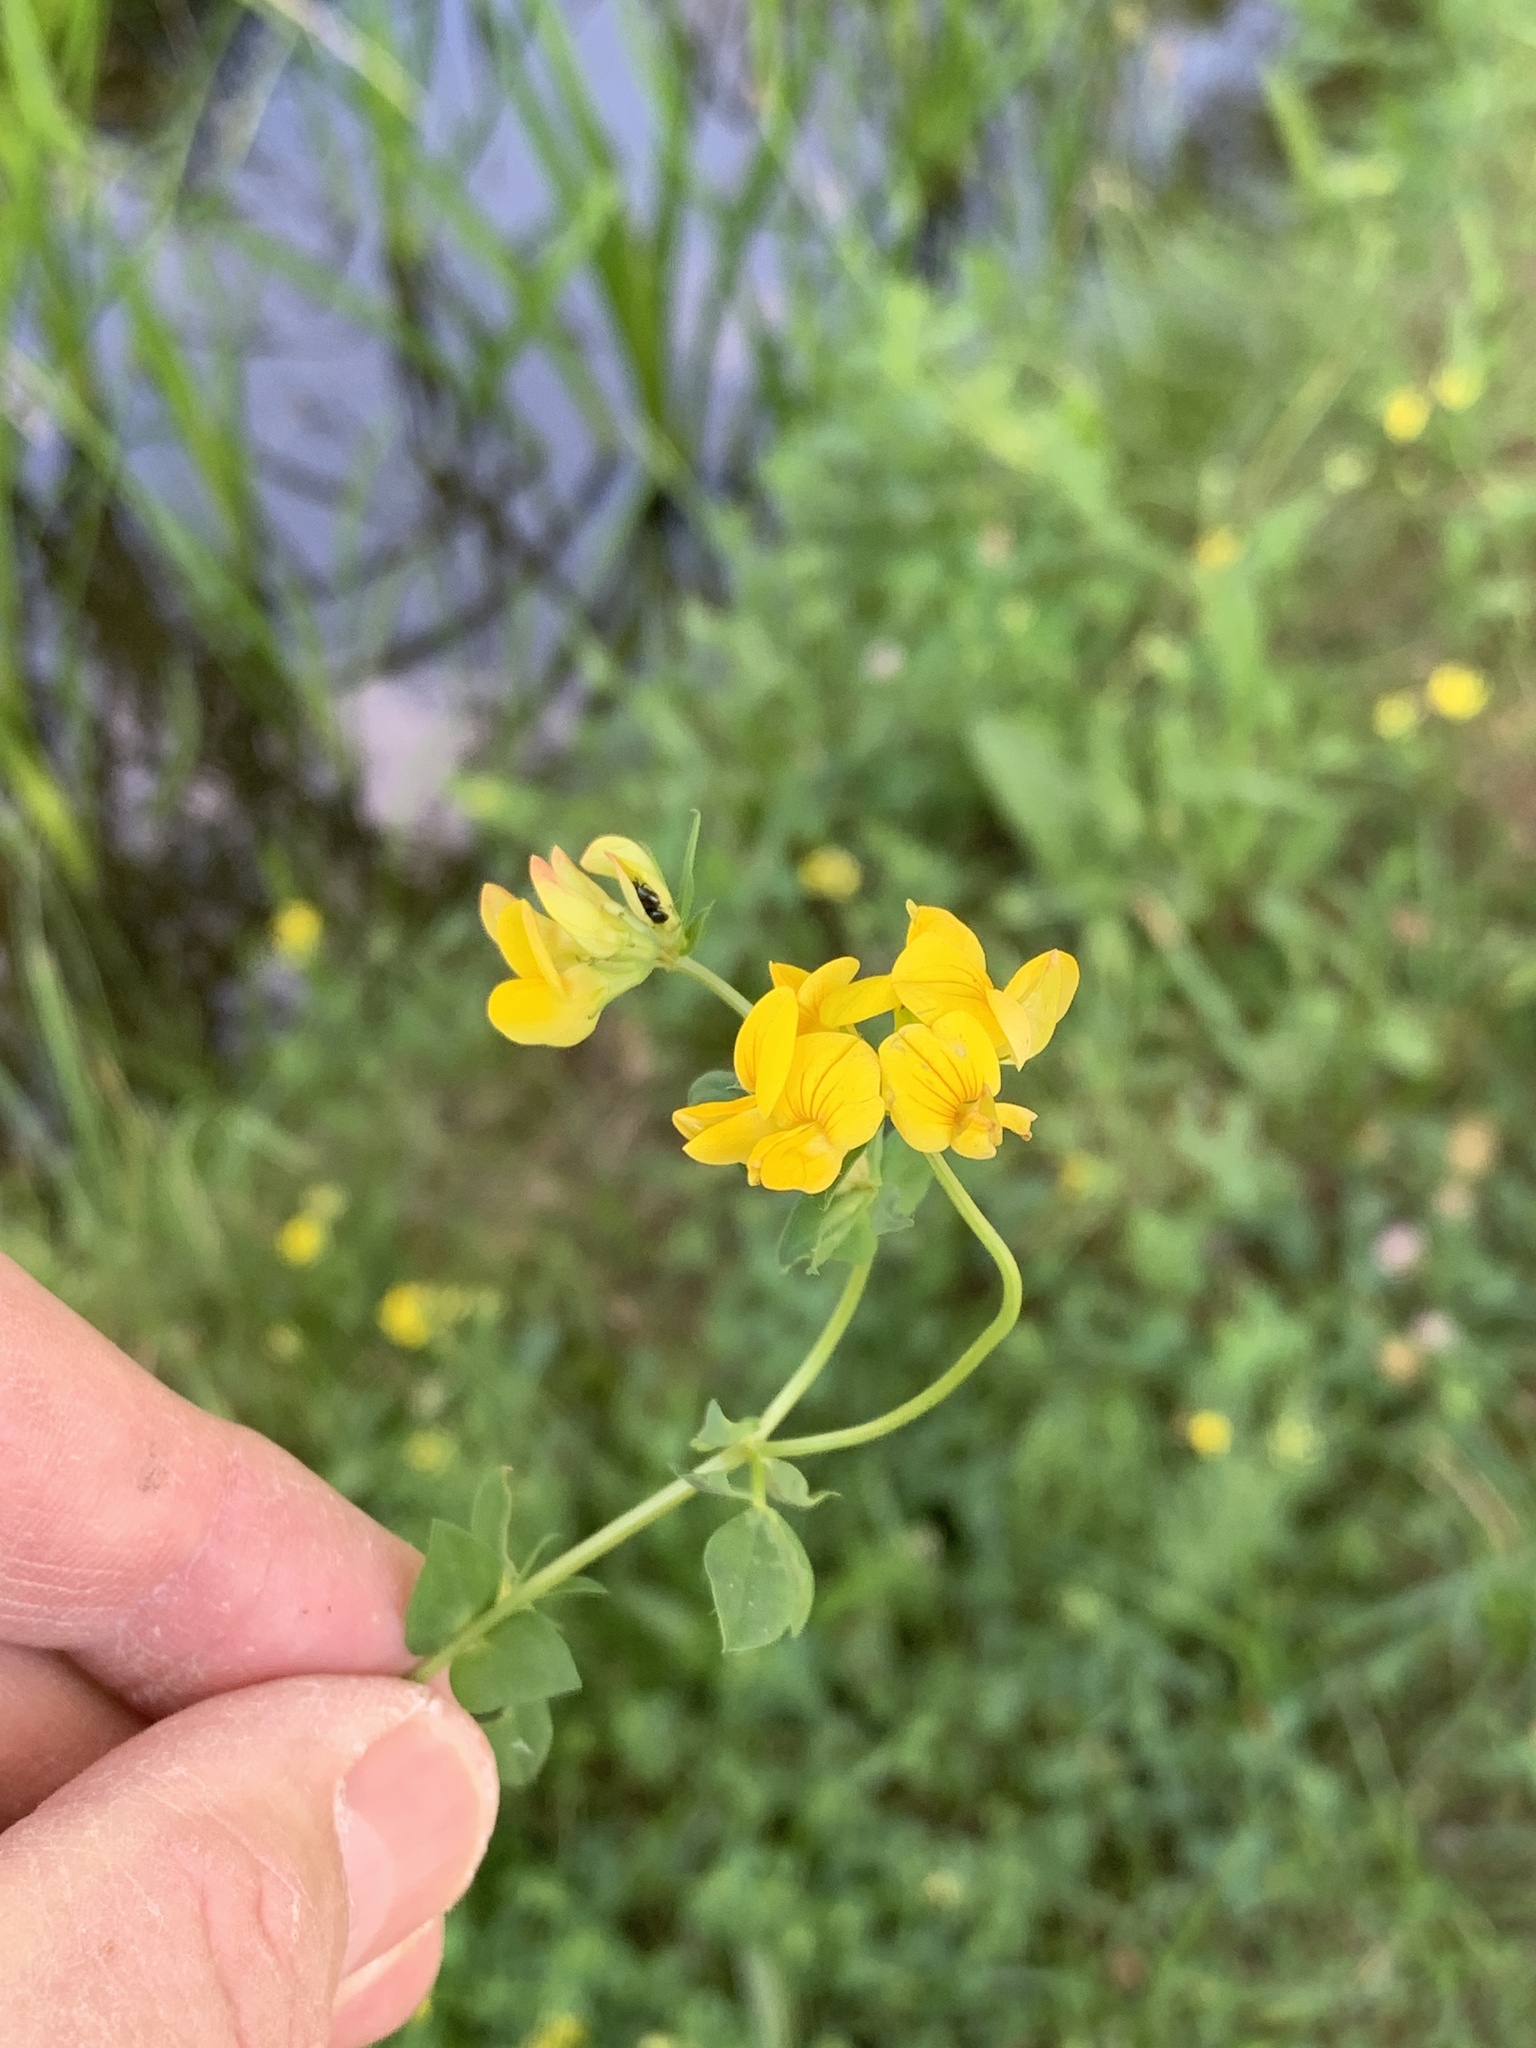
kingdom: Plantae
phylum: Tracheophyta
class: Magnoliopsida
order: Fabales
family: Fabaceae
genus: Lotus
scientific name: Lotus corniculatus
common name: Common bird's-foot-trefoil
